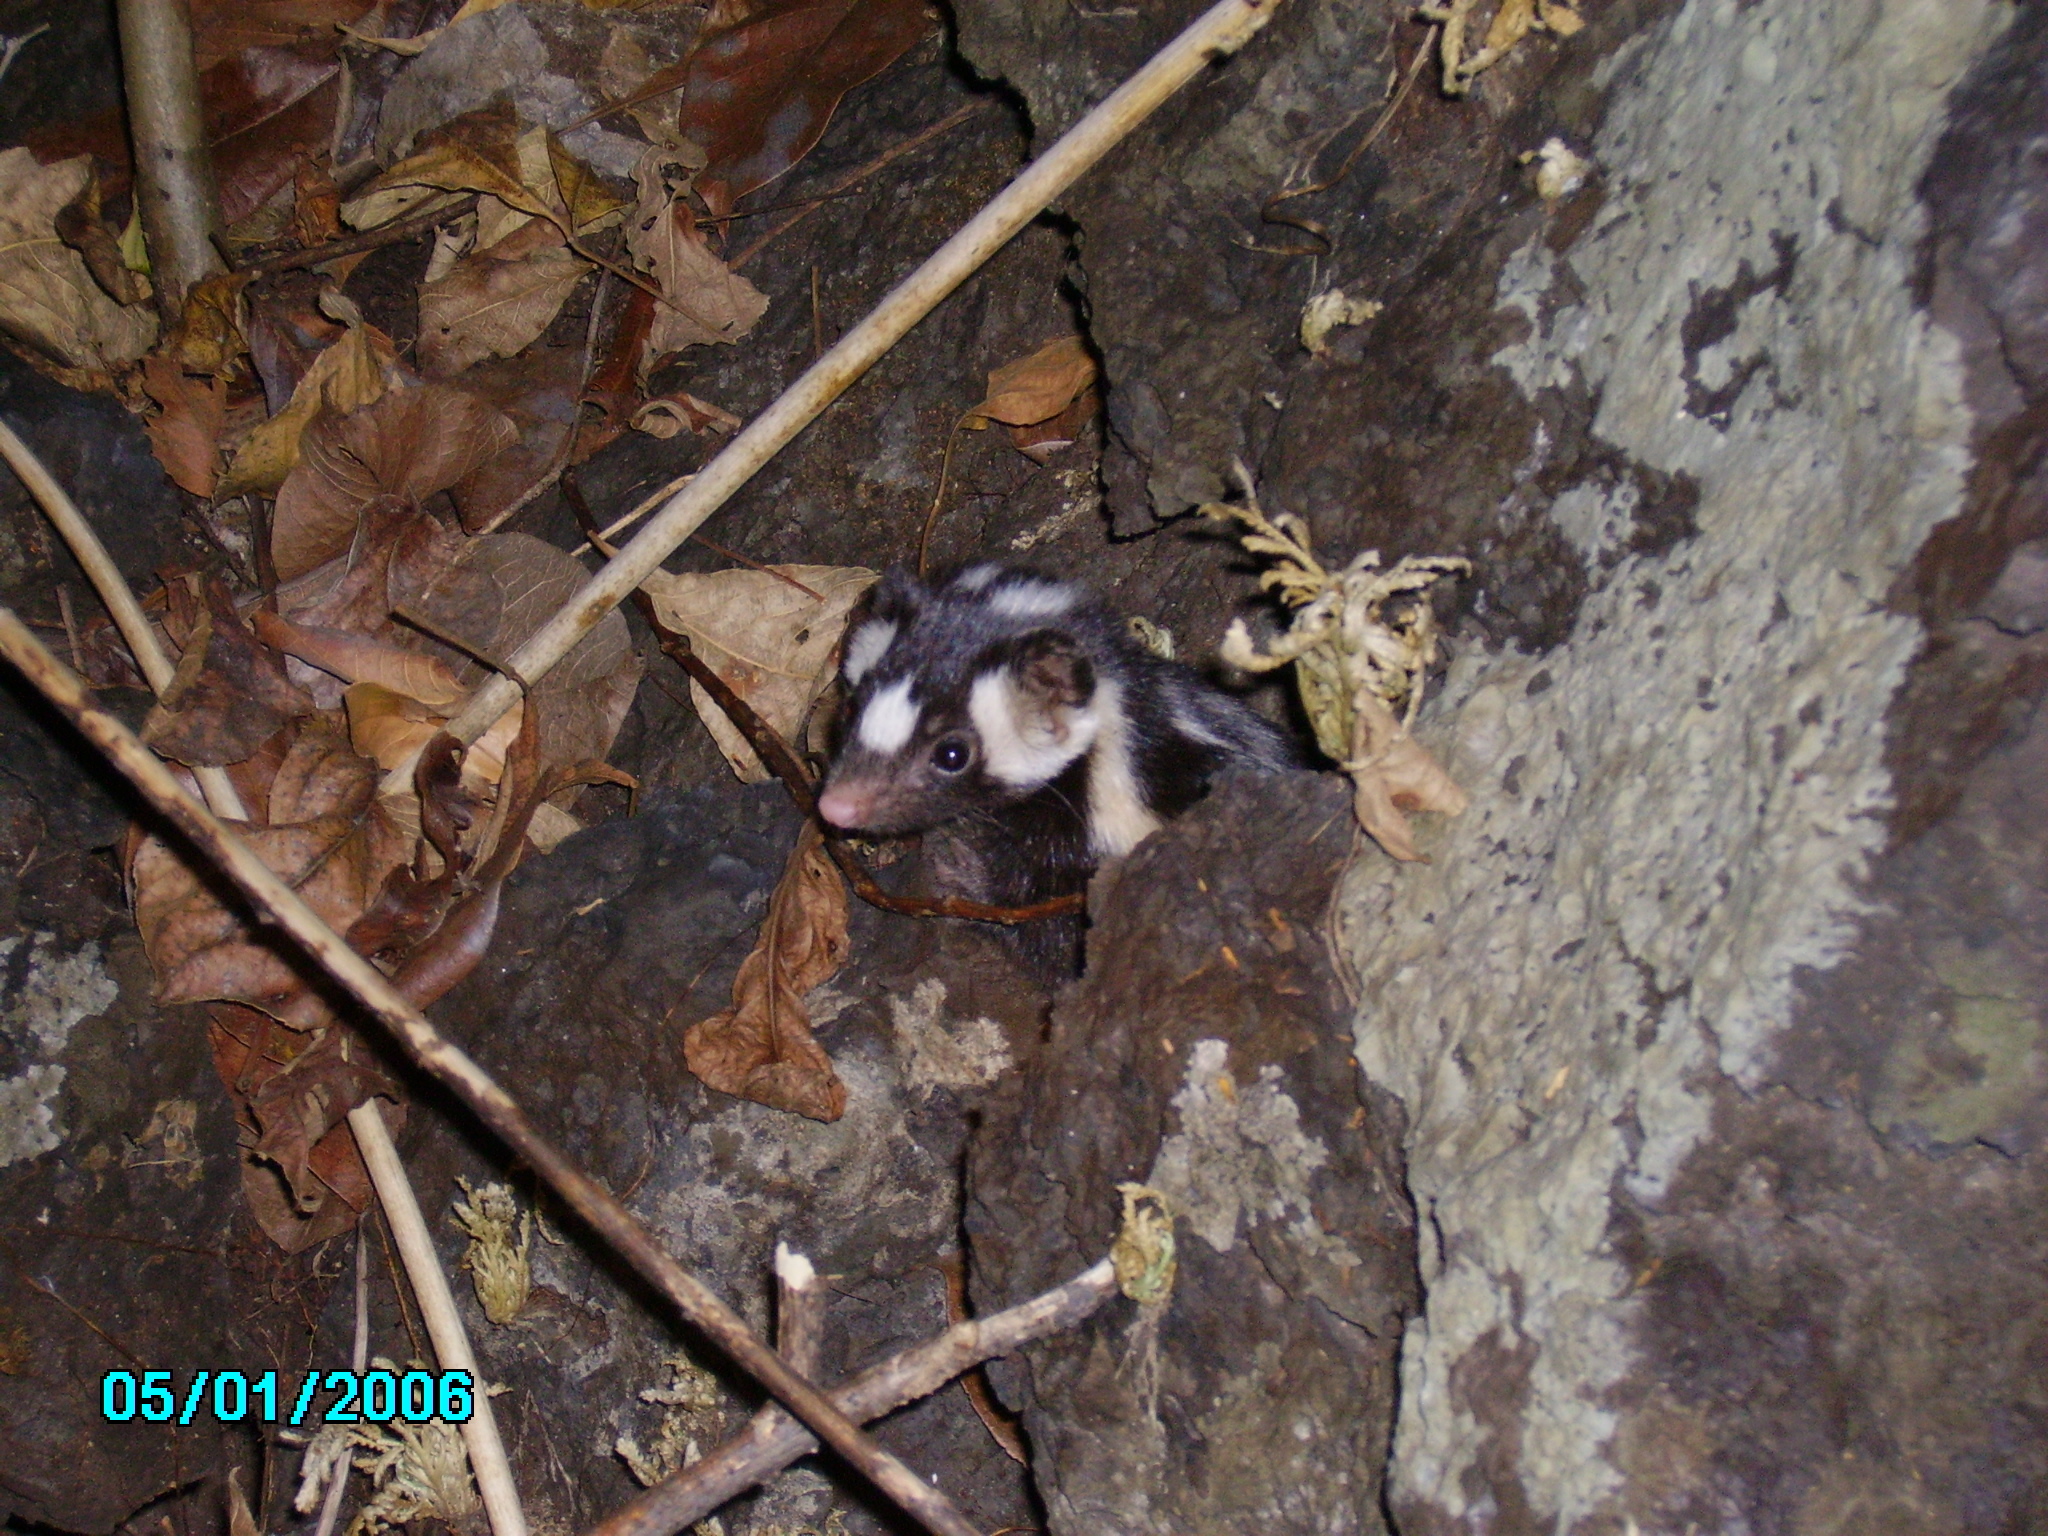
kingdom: Animalia
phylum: Chordata
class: Mammalia
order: Carnivora
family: Mephitidae
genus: Spilogale
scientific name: Spilogale angustifrons
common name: Southern spotted skunk
